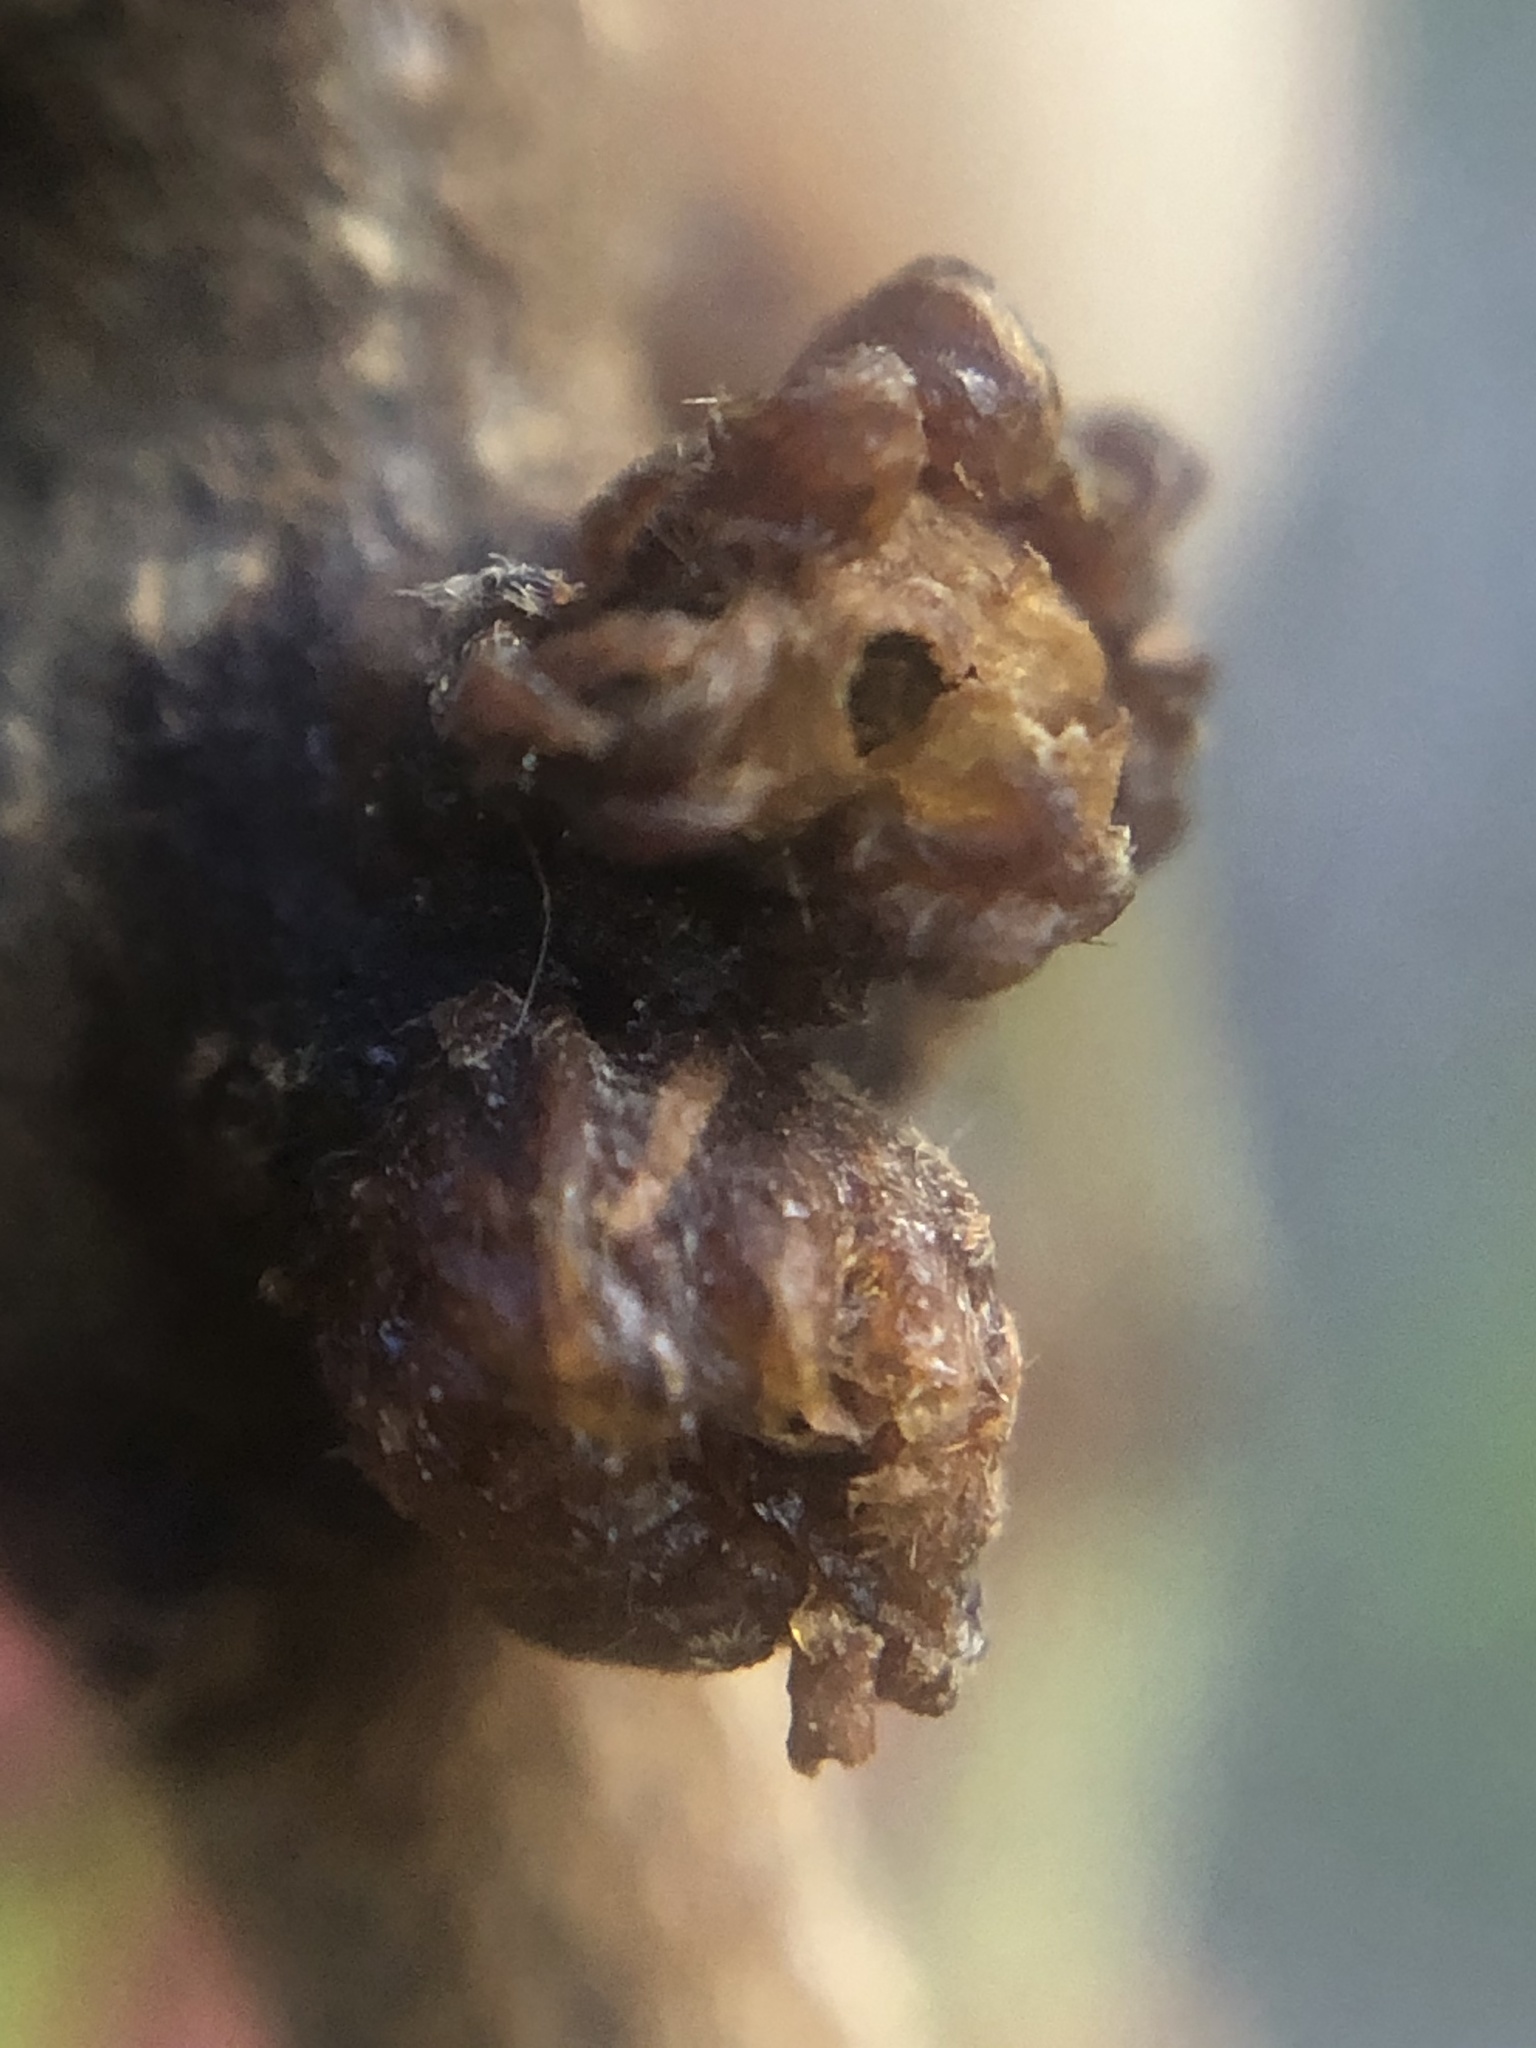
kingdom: Animalia
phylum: Arthropoda
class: Insecta
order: Diptera
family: Cecidomyiidae
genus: Asphondylia
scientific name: Asphondylia resinosa
